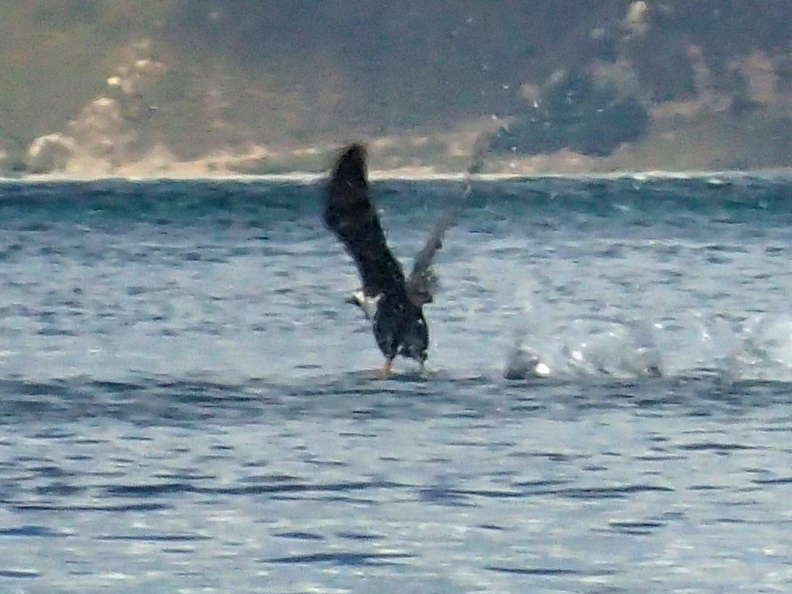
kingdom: Animalia
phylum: Chordata
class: Aves
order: Suliformes
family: Phalacrocoracidae
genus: Phalacrocorax
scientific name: Phalacrocorax punctatus
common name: Spotted shag
